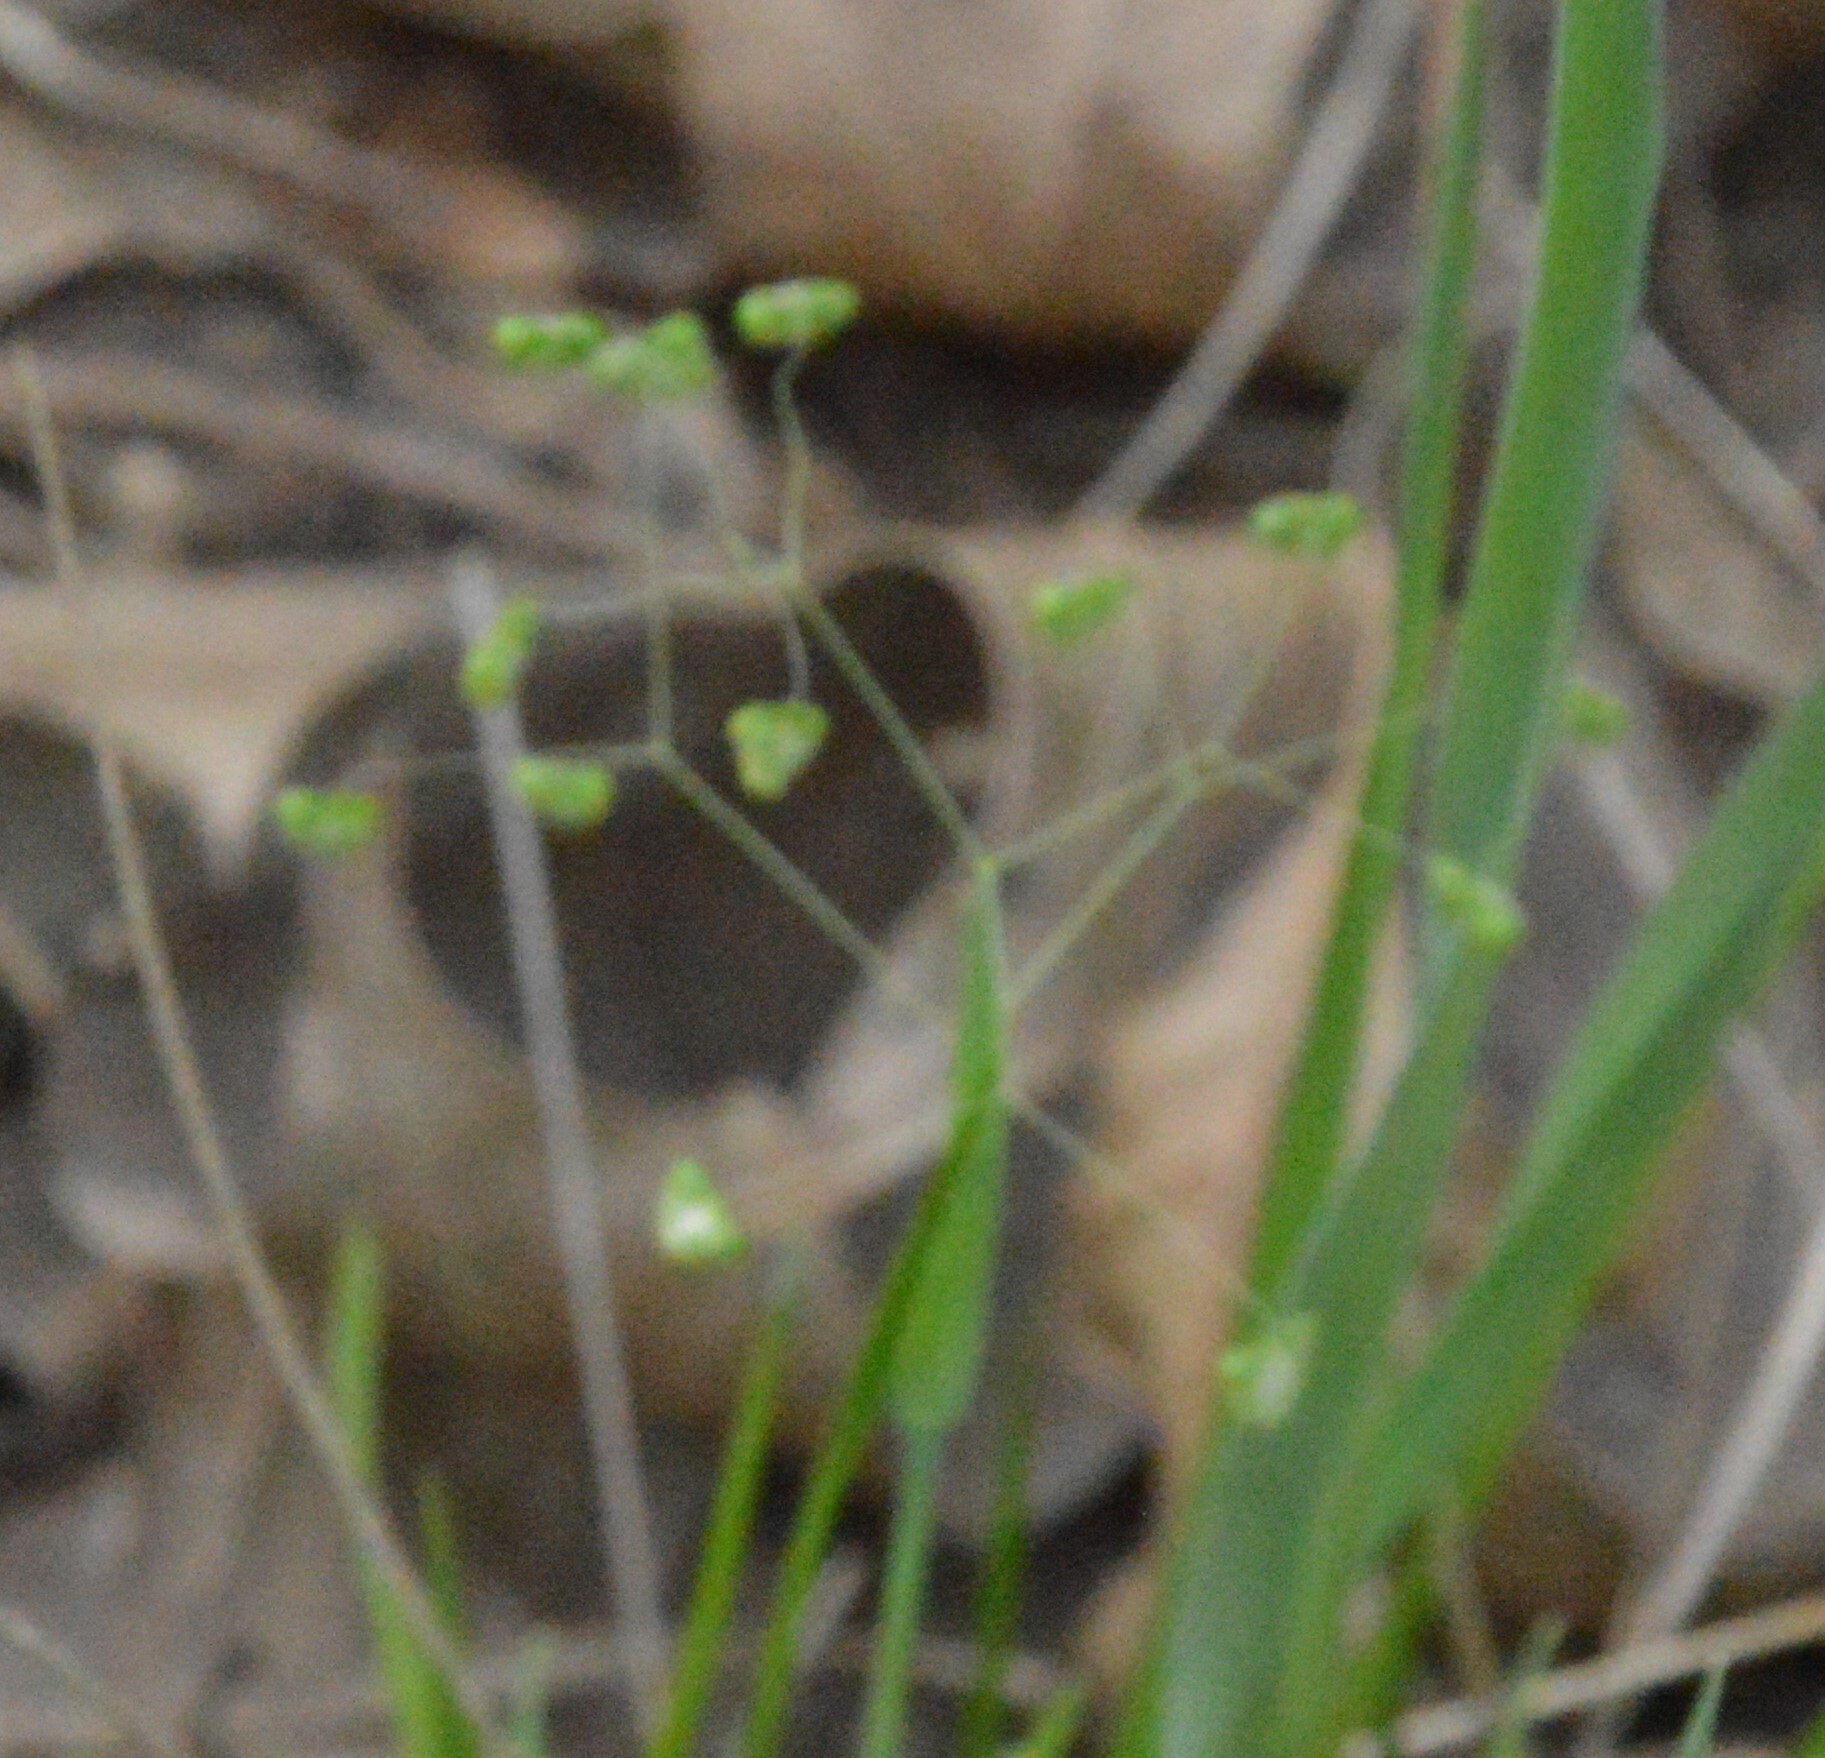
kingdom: Plantae
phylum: Tracheophyta
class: Liliopsida
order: Poales
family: Poaceae
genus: Briza
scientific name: Briza minor
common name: Lesser quaking-grass
